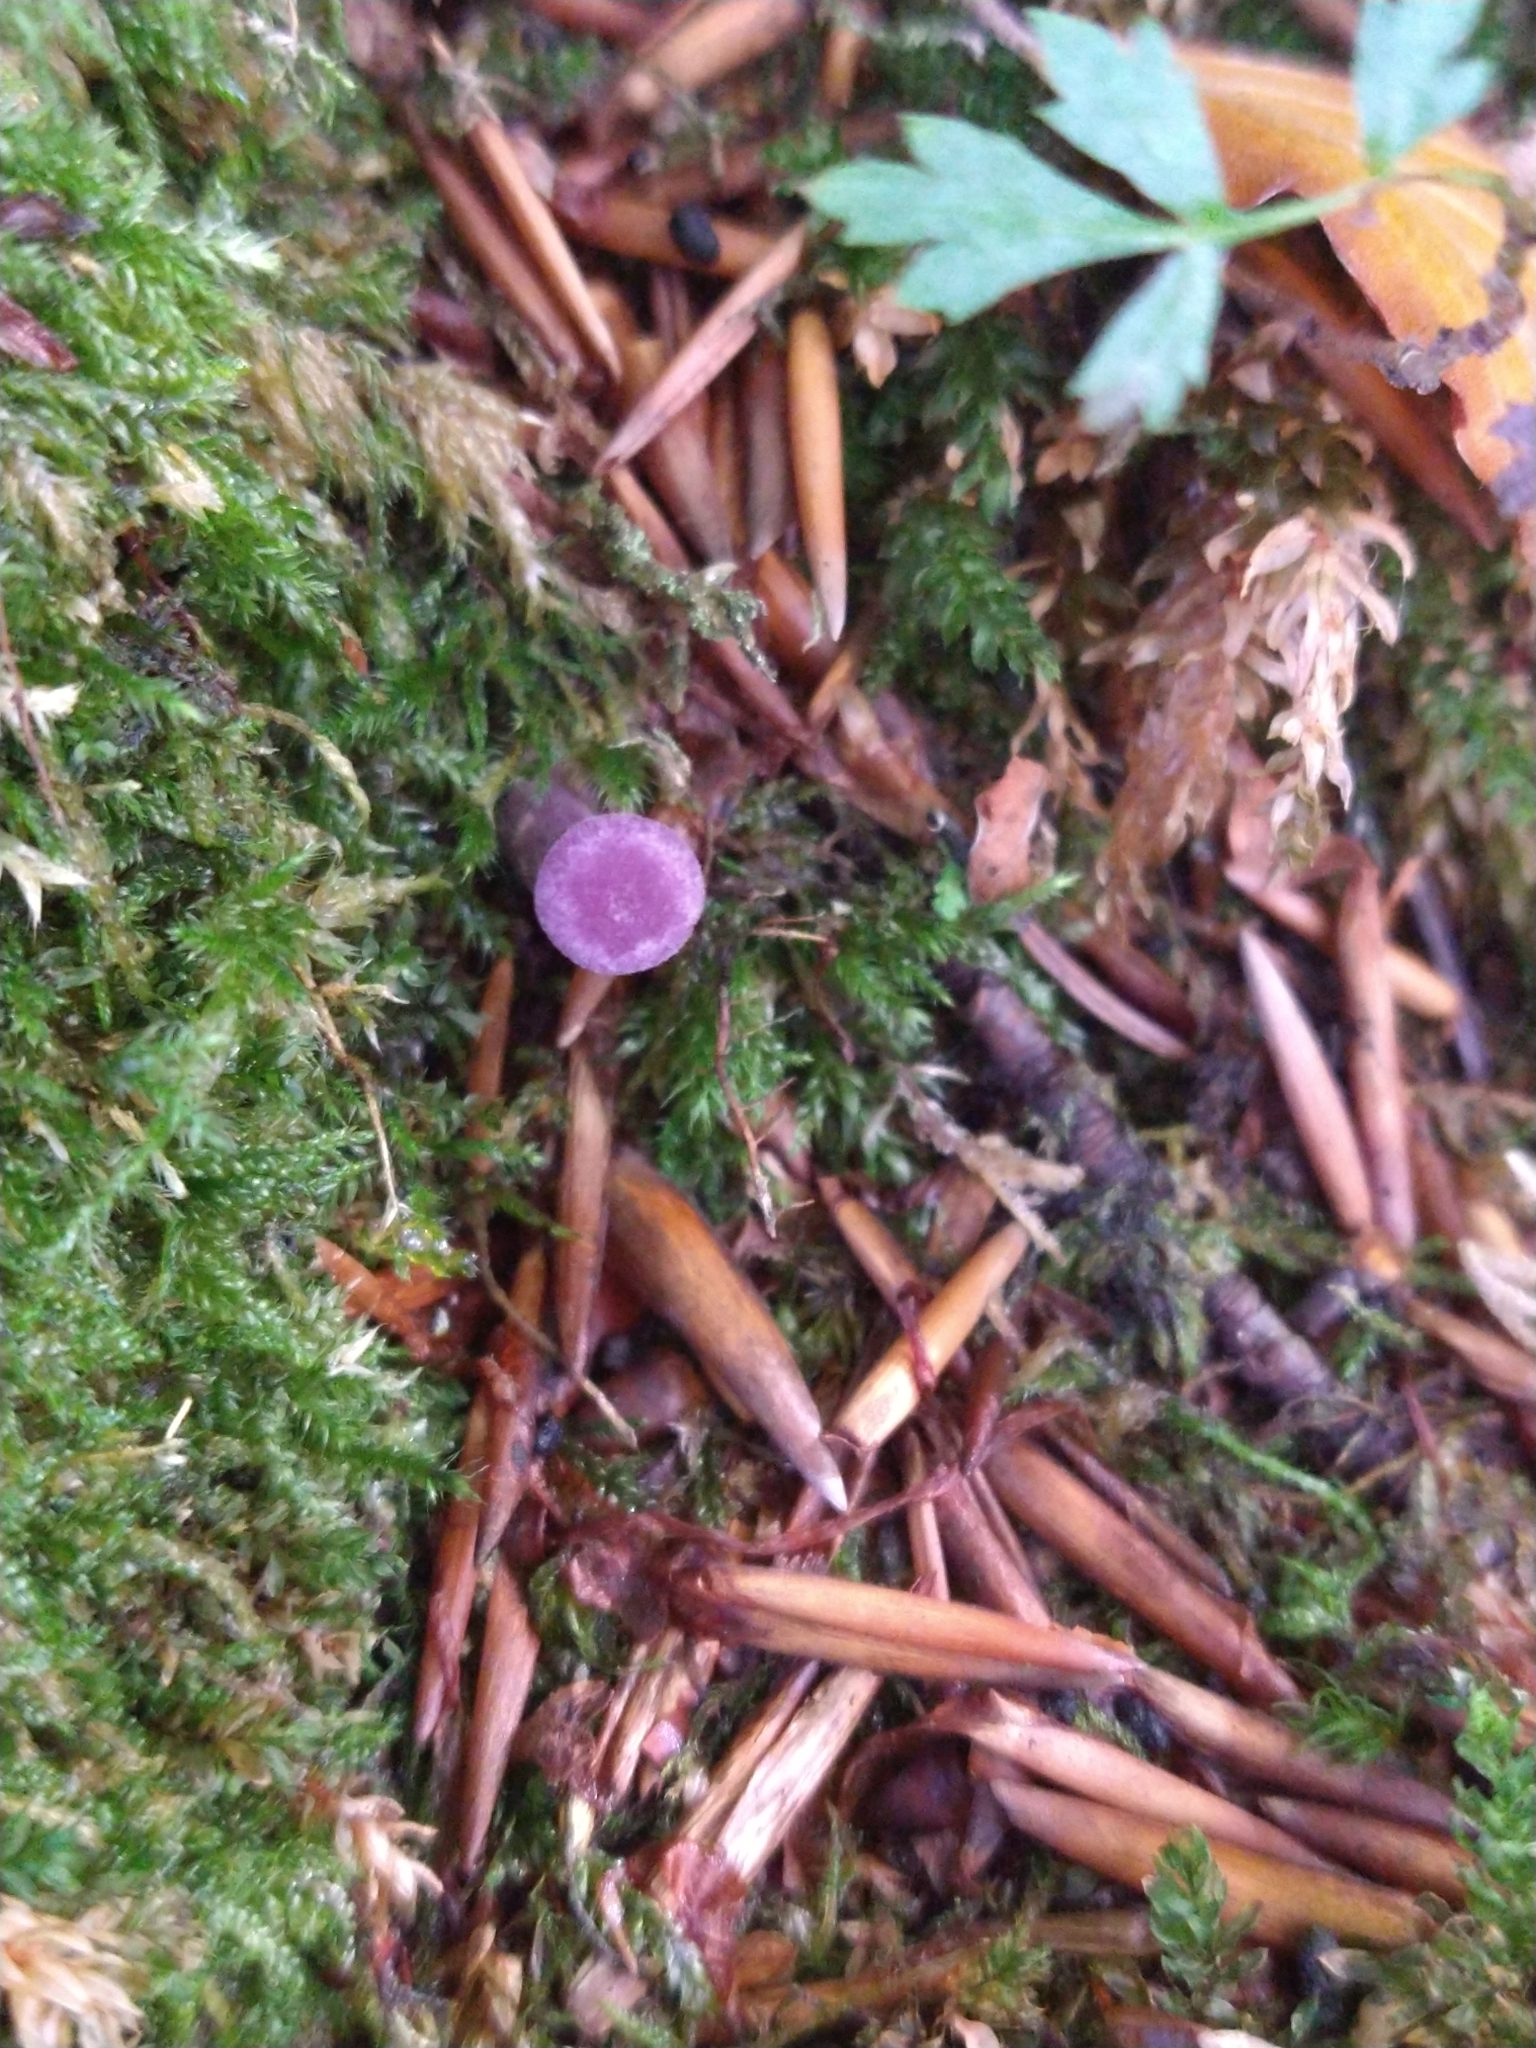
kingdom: Fungi
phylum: Basidiomycota
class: Agaricomycetes
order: Agaricales
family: Hydnangiaceae
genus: Laccaria
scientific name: Laccaria amethystina
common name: Amethyst deceiver
